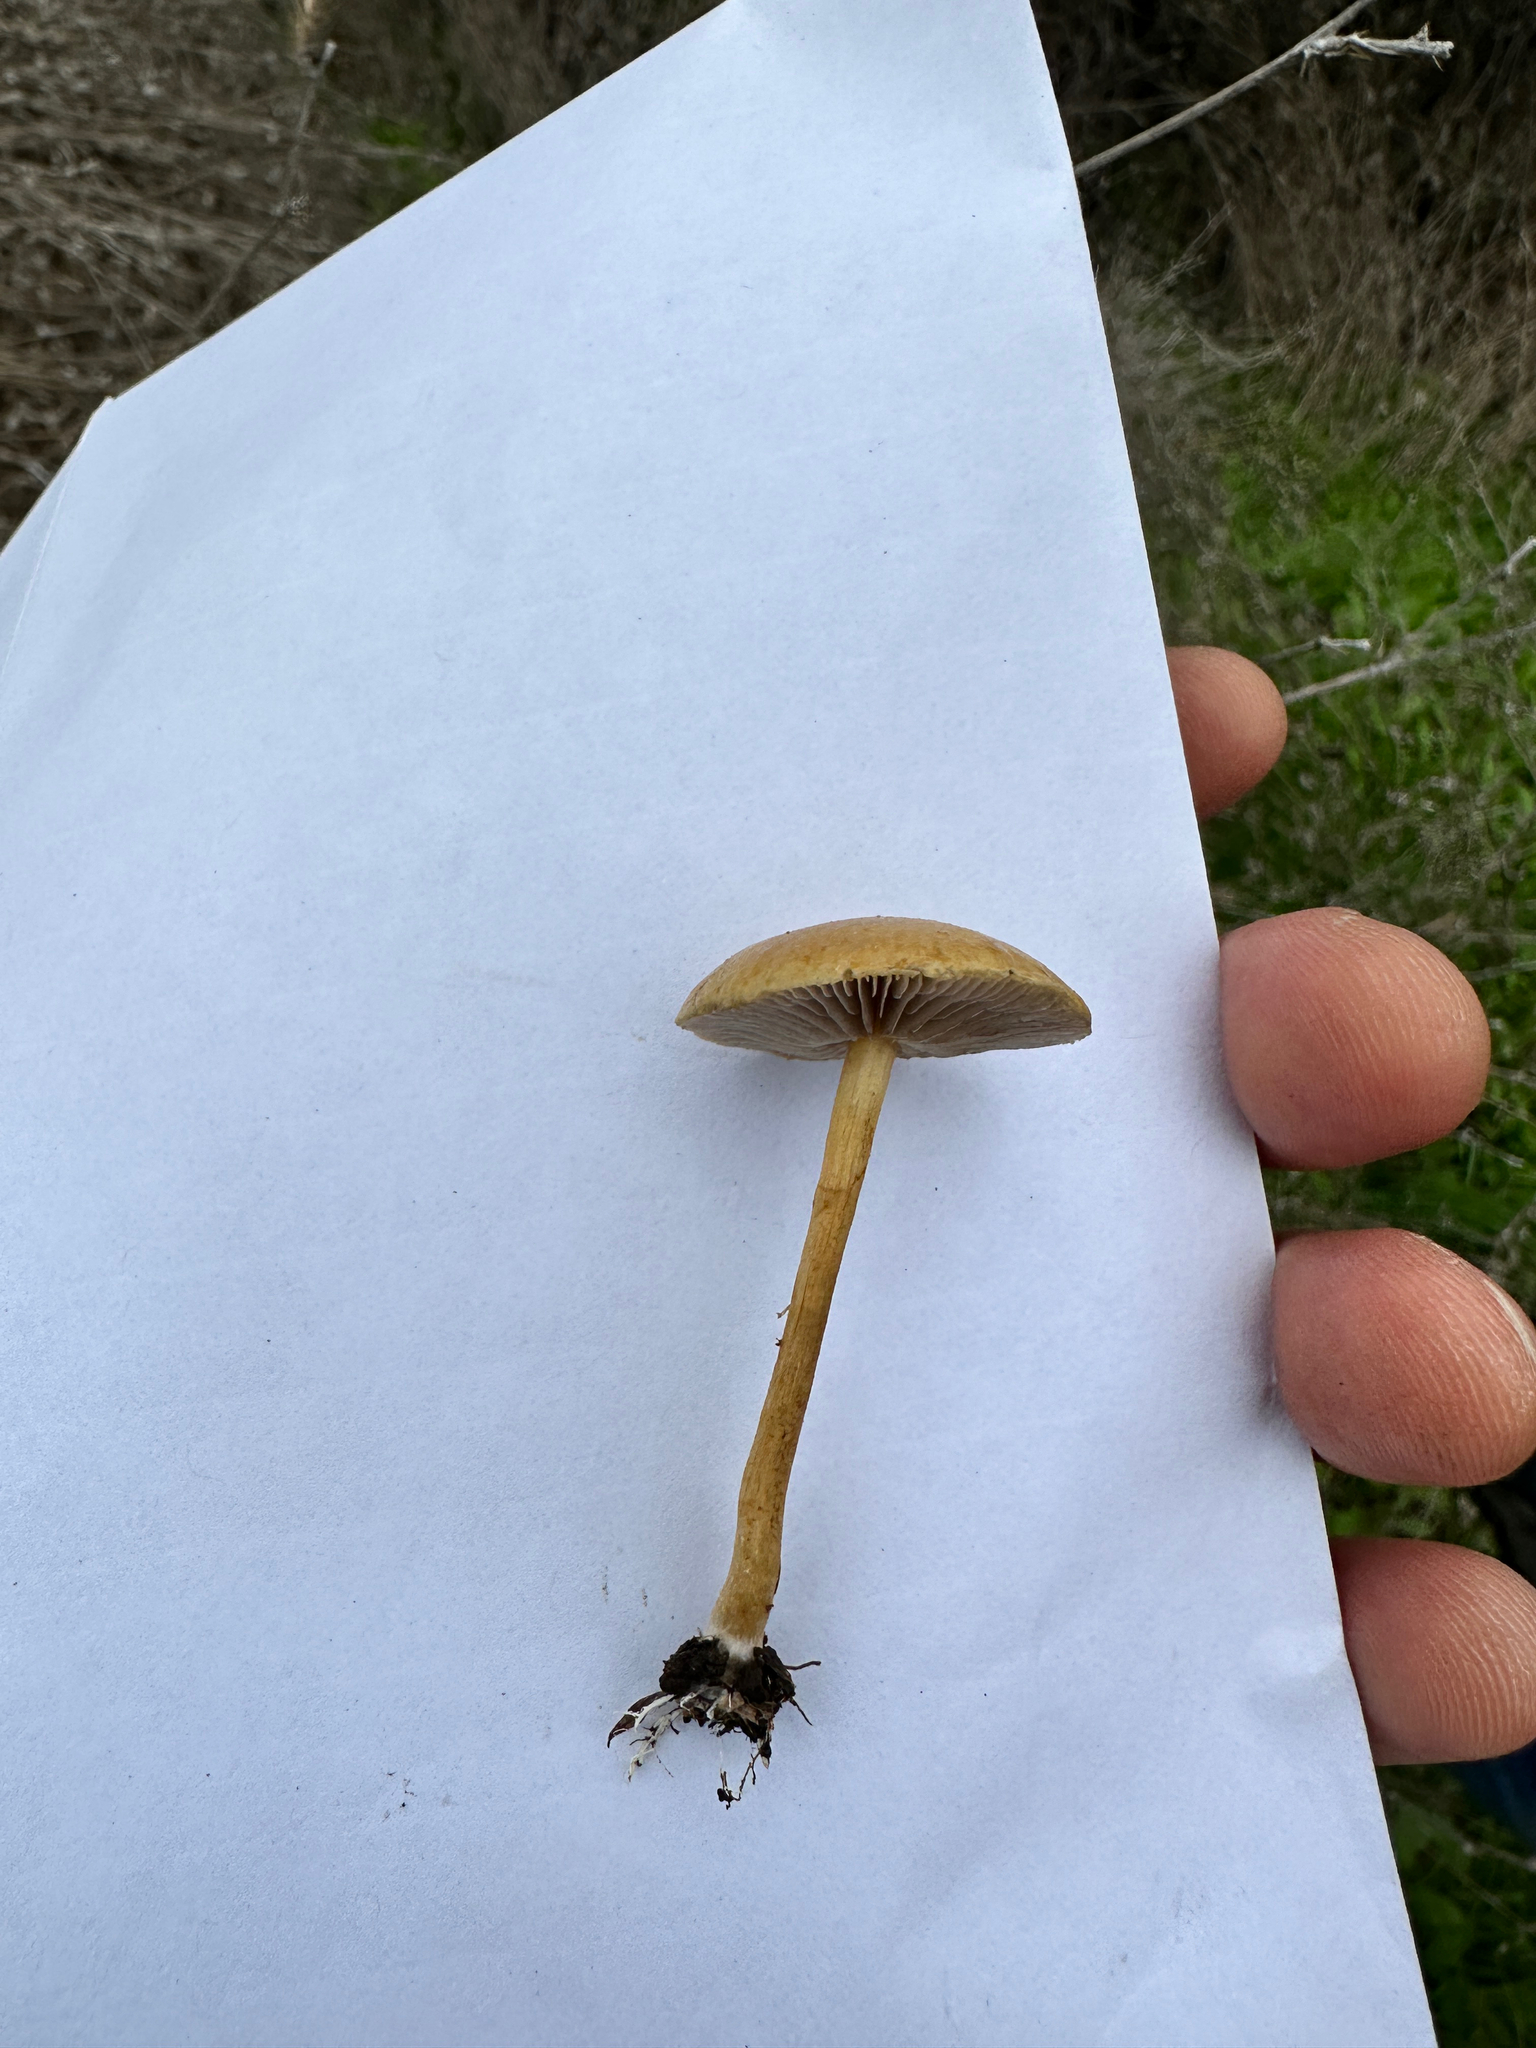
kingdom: Fungi
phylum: Basidiomycota
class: Agaricomycetes
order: Agaricales
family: Strophariaceae
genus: Agrocybe
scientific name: Agrocybe pediades
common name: Common fieldcap
